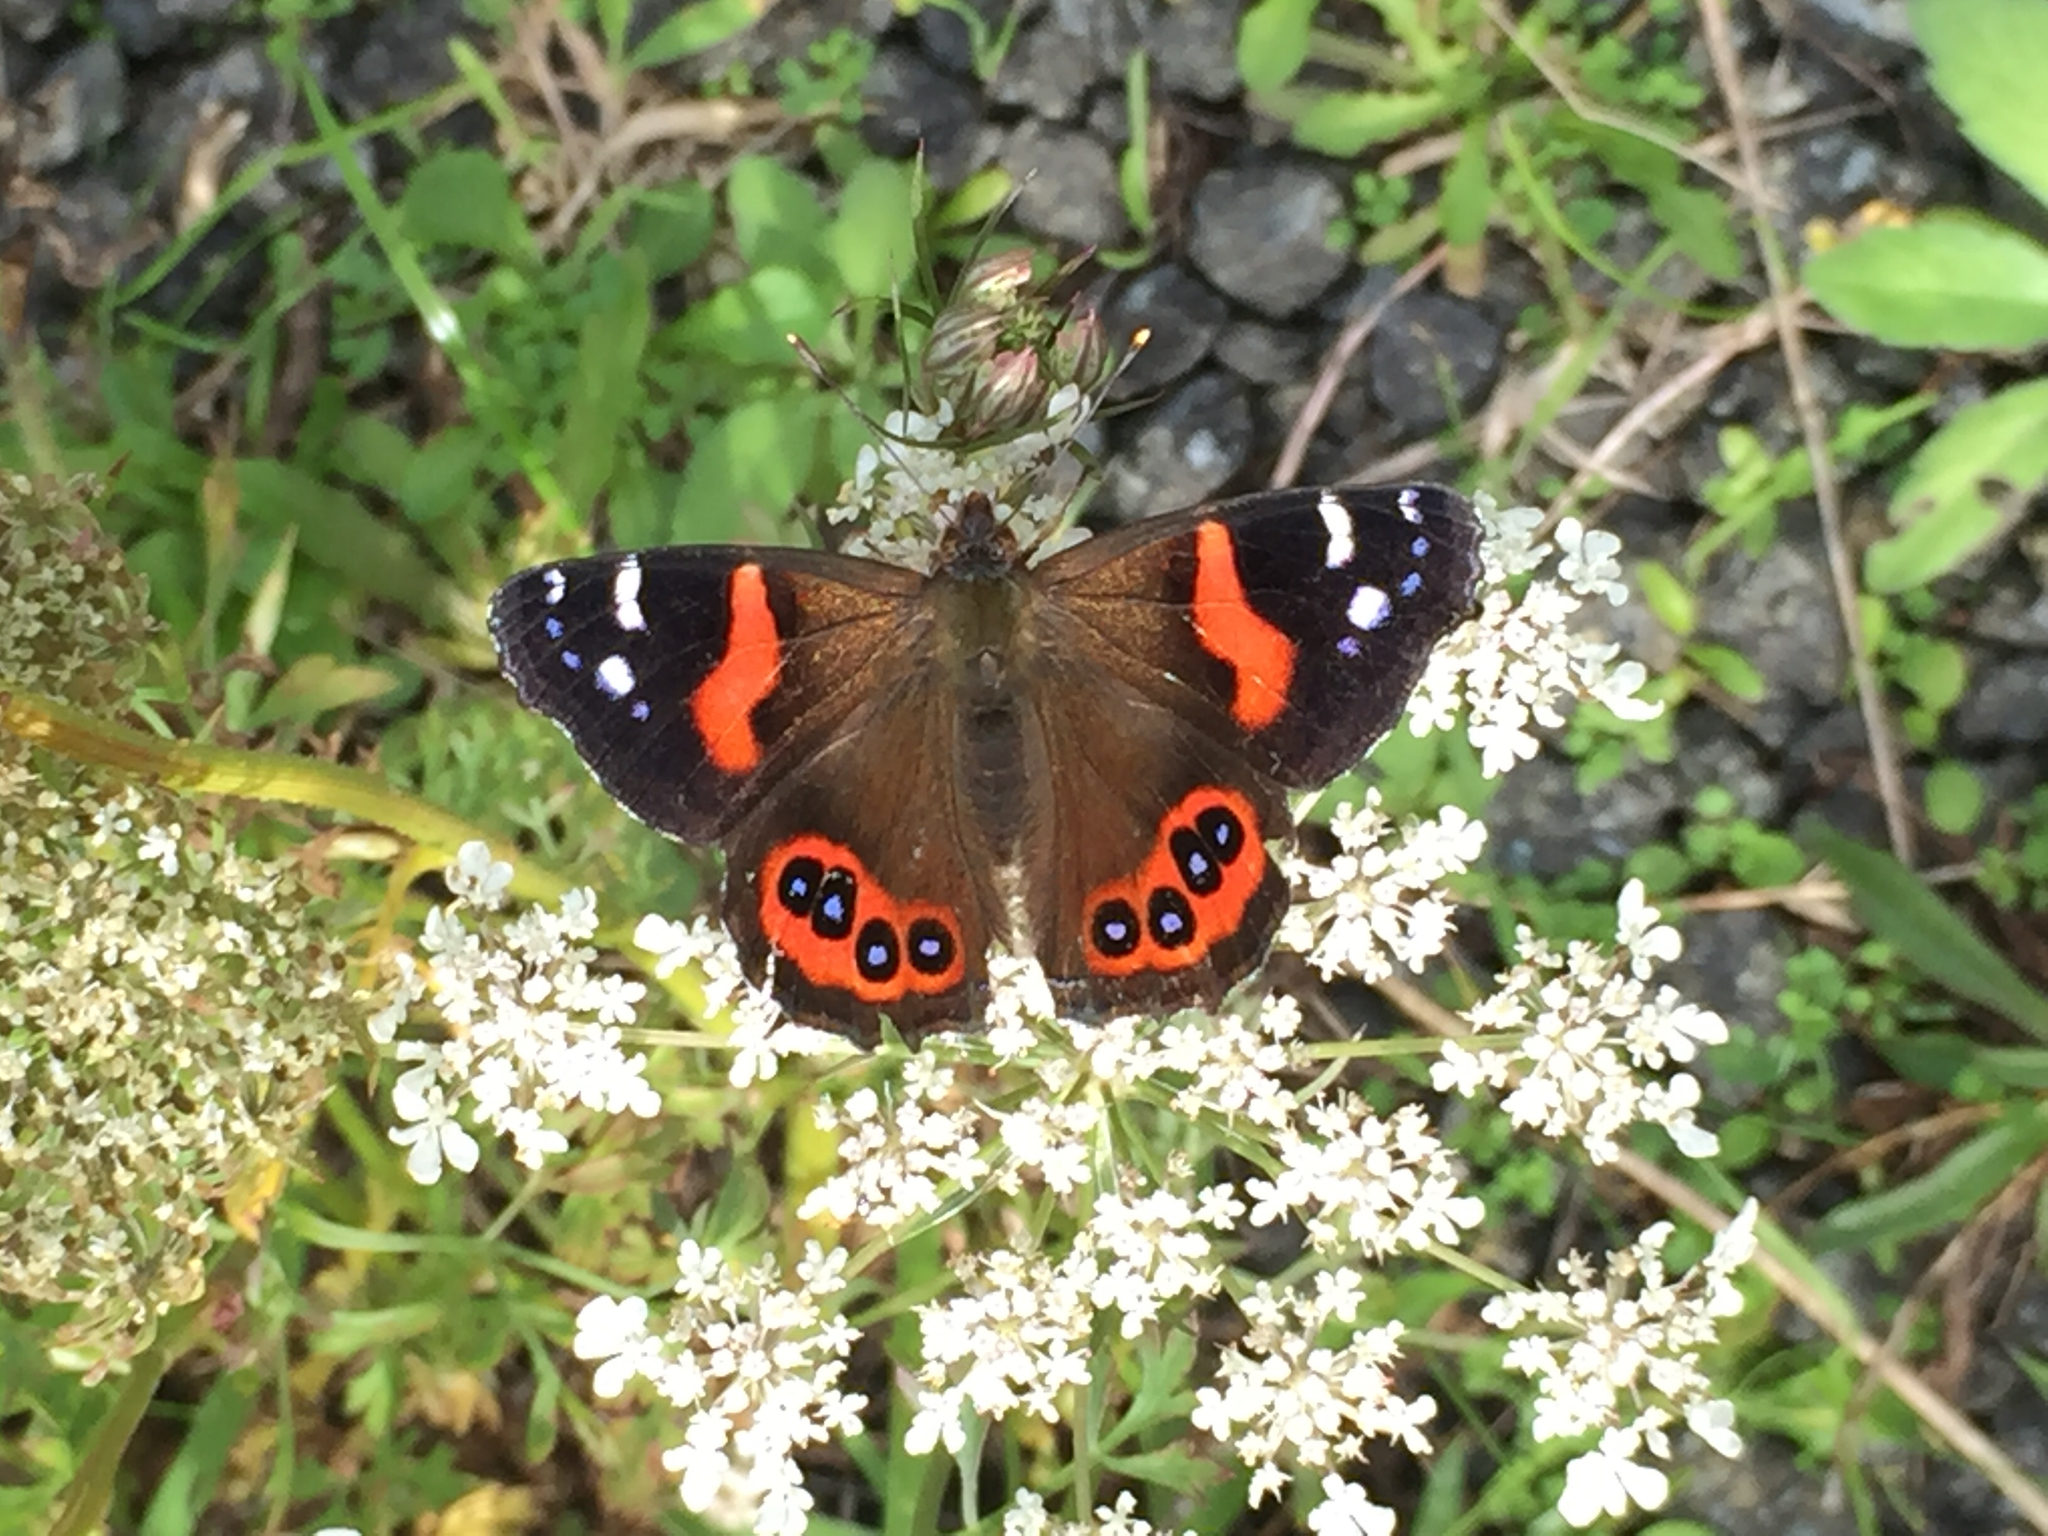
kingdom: Animalia
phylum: Arthropoda
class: Insecta
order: Lepidoptera
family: Nymphalidae
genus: Vanessa
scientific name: Vanessa gonerilla
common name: New zealand red admiral
